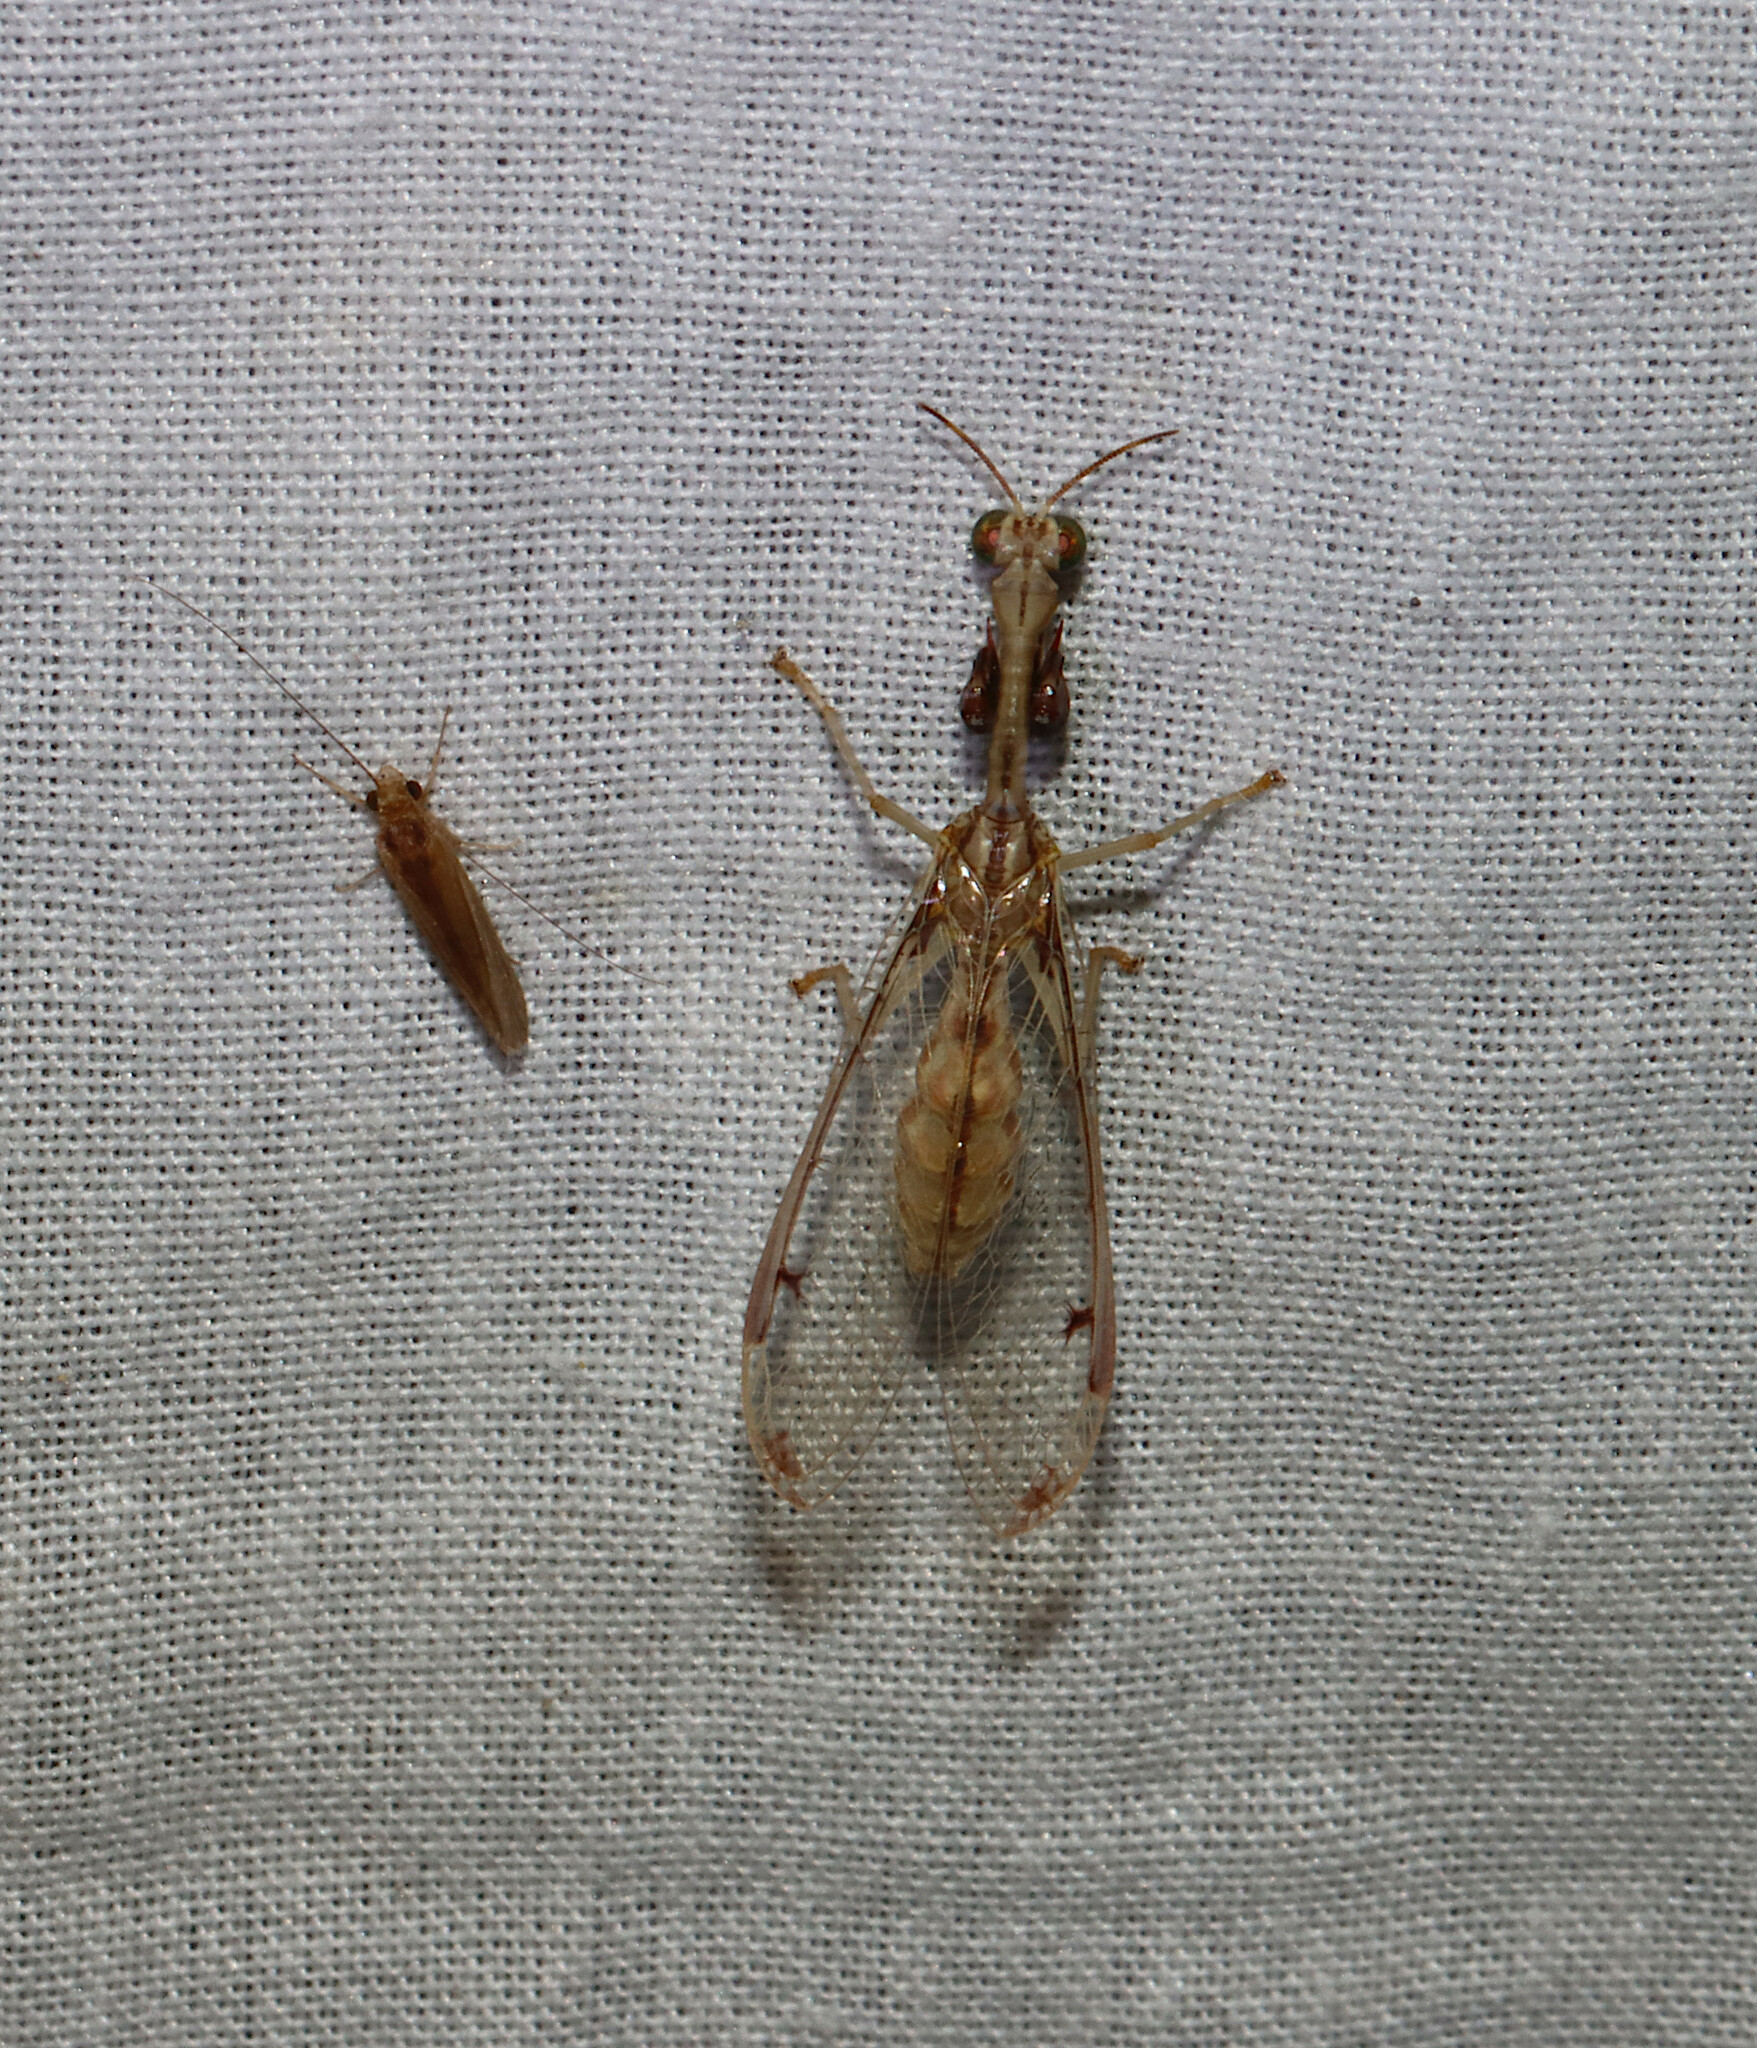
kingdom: Animalia
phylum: Arthropoda
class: Insecta
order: Neuroptera
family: Mantispidae
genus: Dicromantispa
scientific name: Dicromantispa interrupta
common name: Four-spotted mantidfly
